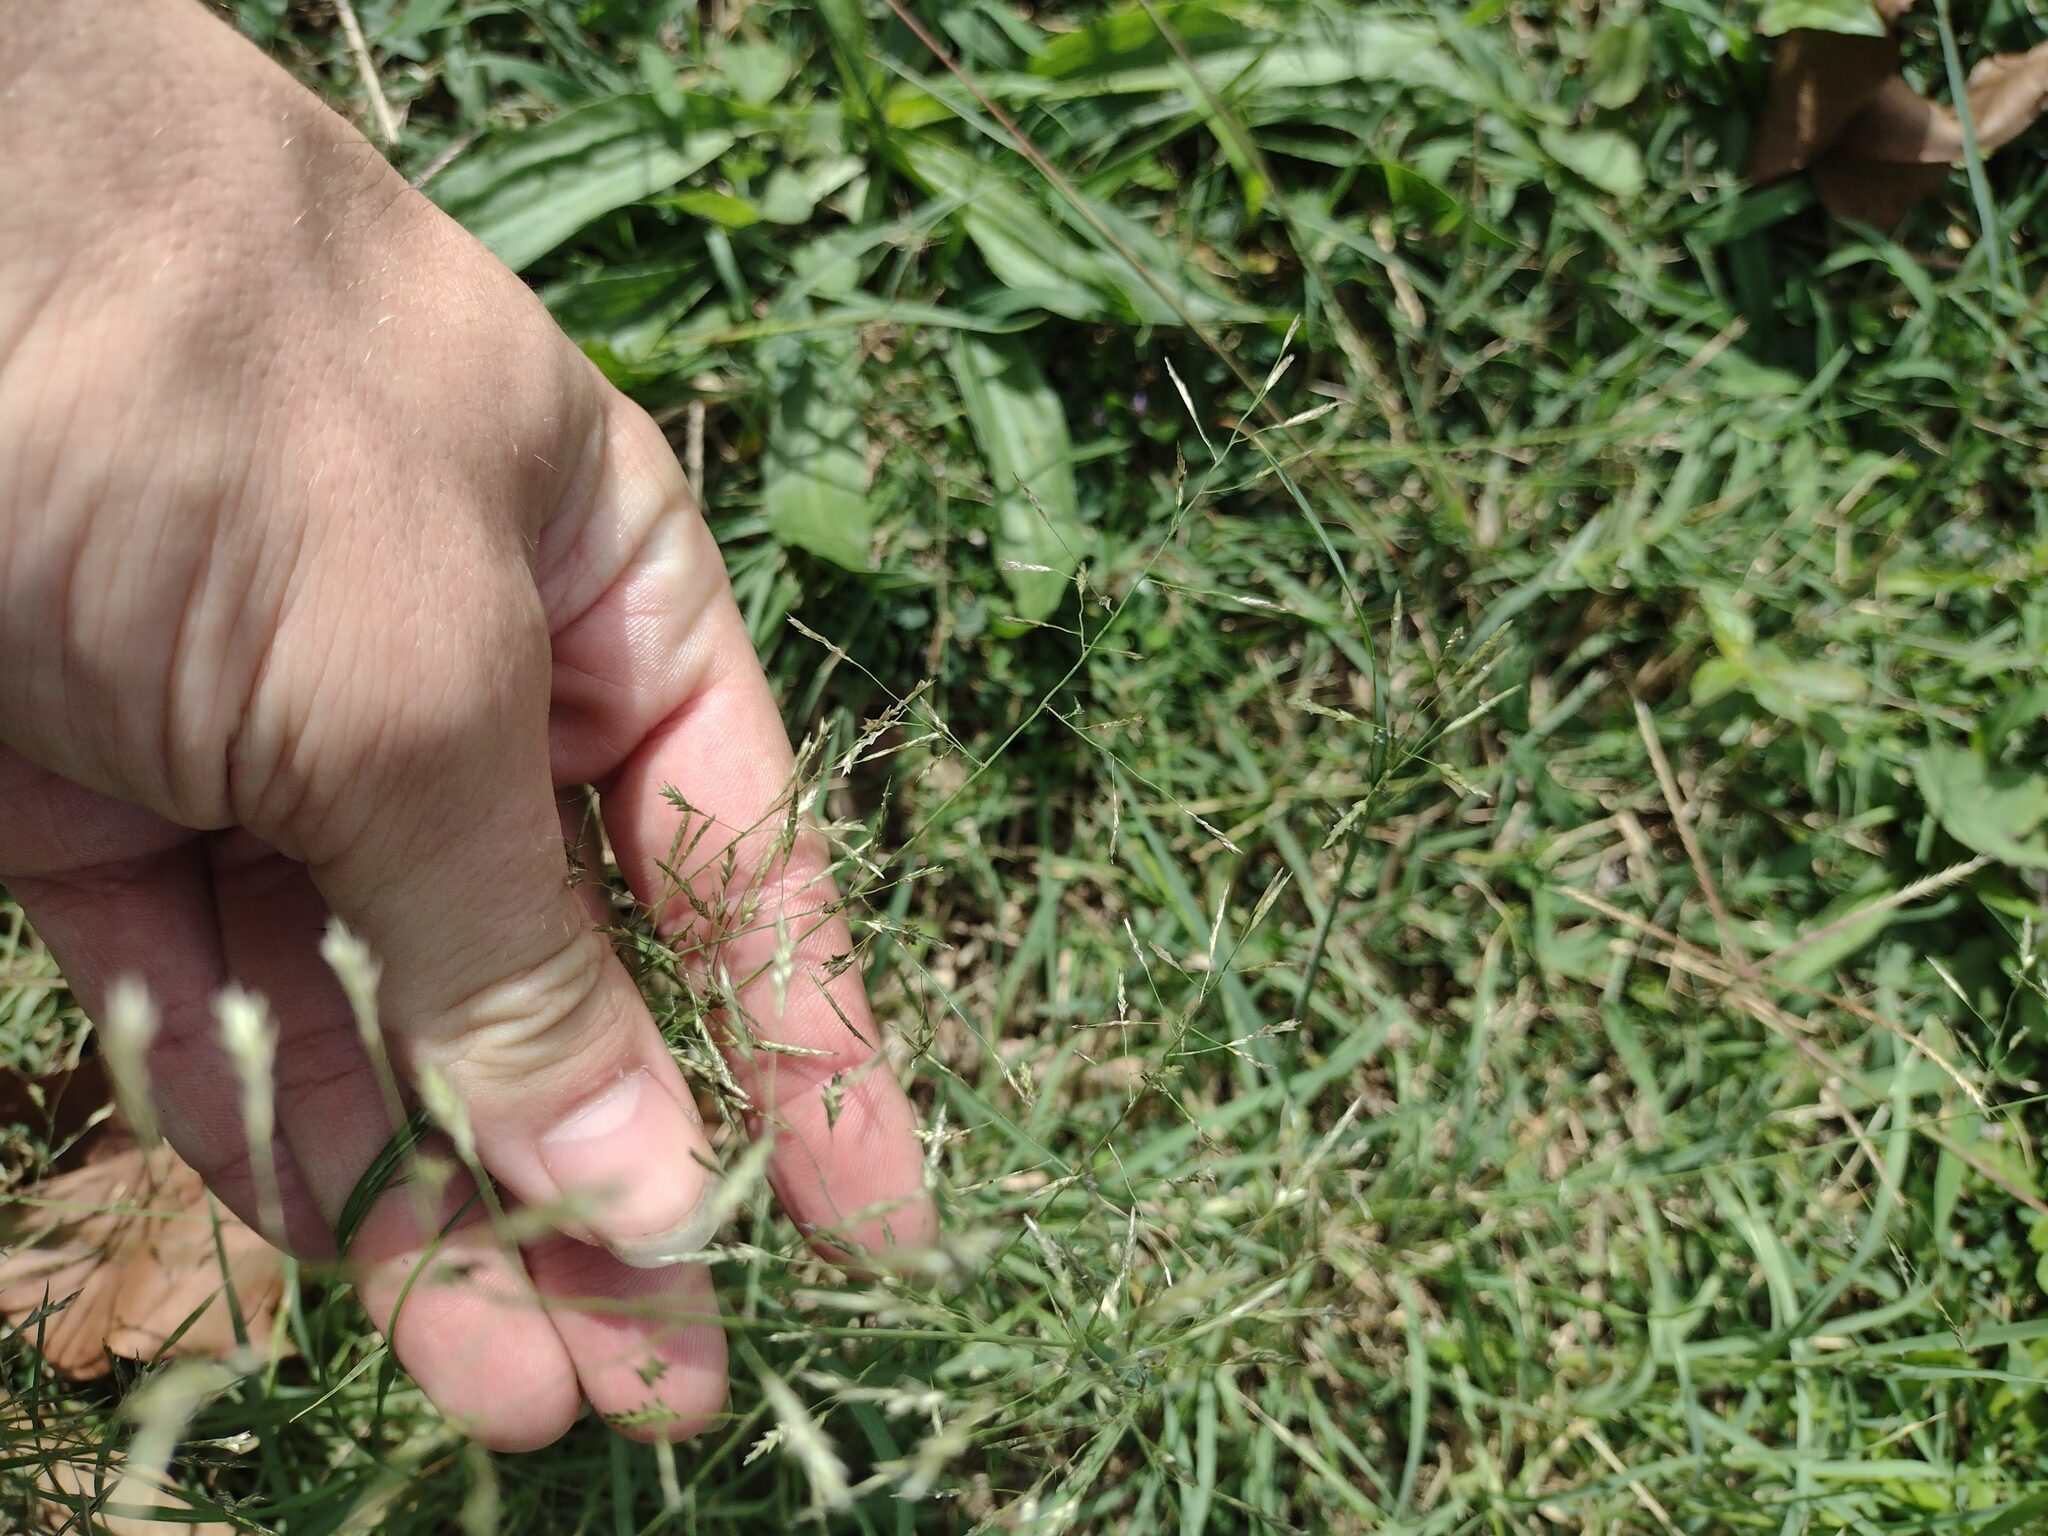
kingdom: Plantae
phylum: Tracheophyta
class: Liliopsida
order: Poales
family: Poaceae
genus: Eragrostis
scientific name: Eragrostis tenuifolia
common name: Elastic grass
